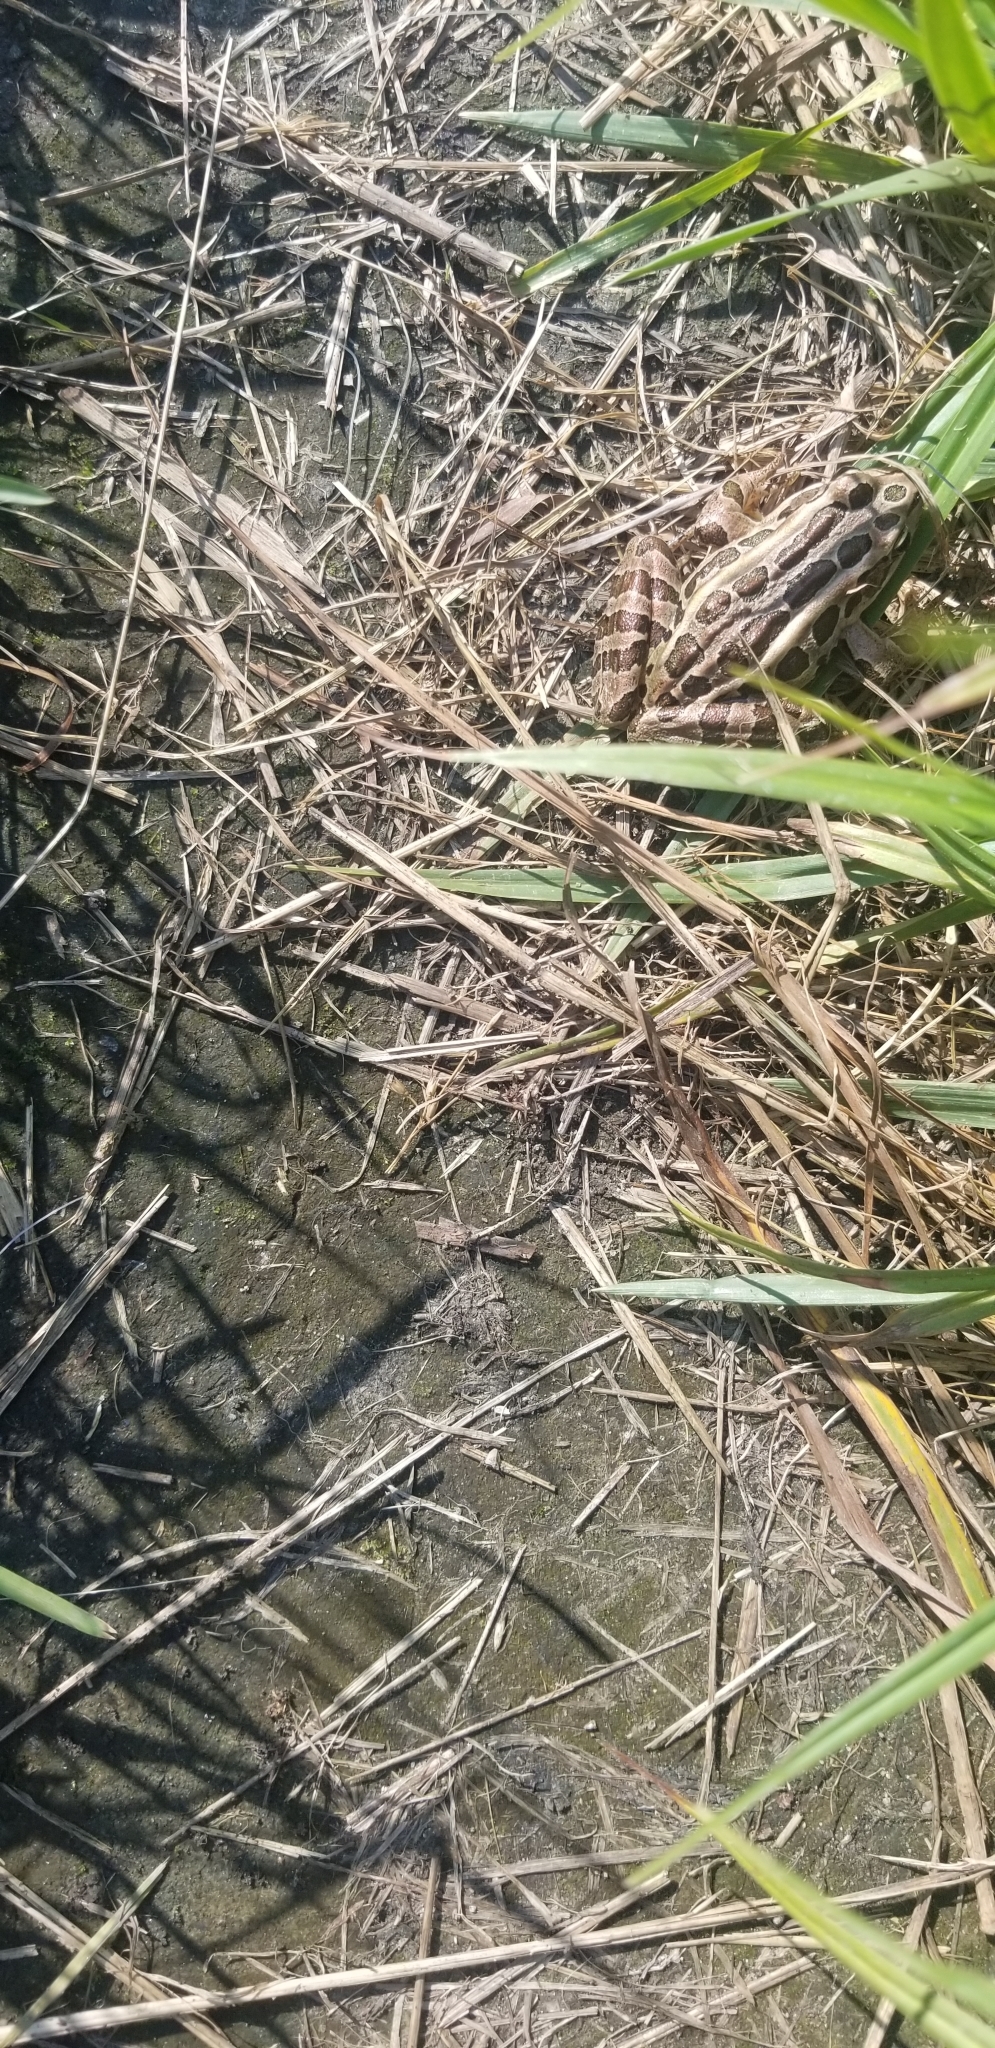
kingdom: Animalia
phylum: Chordata
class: Amphibia
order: Anura
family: Ranidae
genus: Lithobates
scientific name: Lithobates palustris
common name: Pickerel frog
